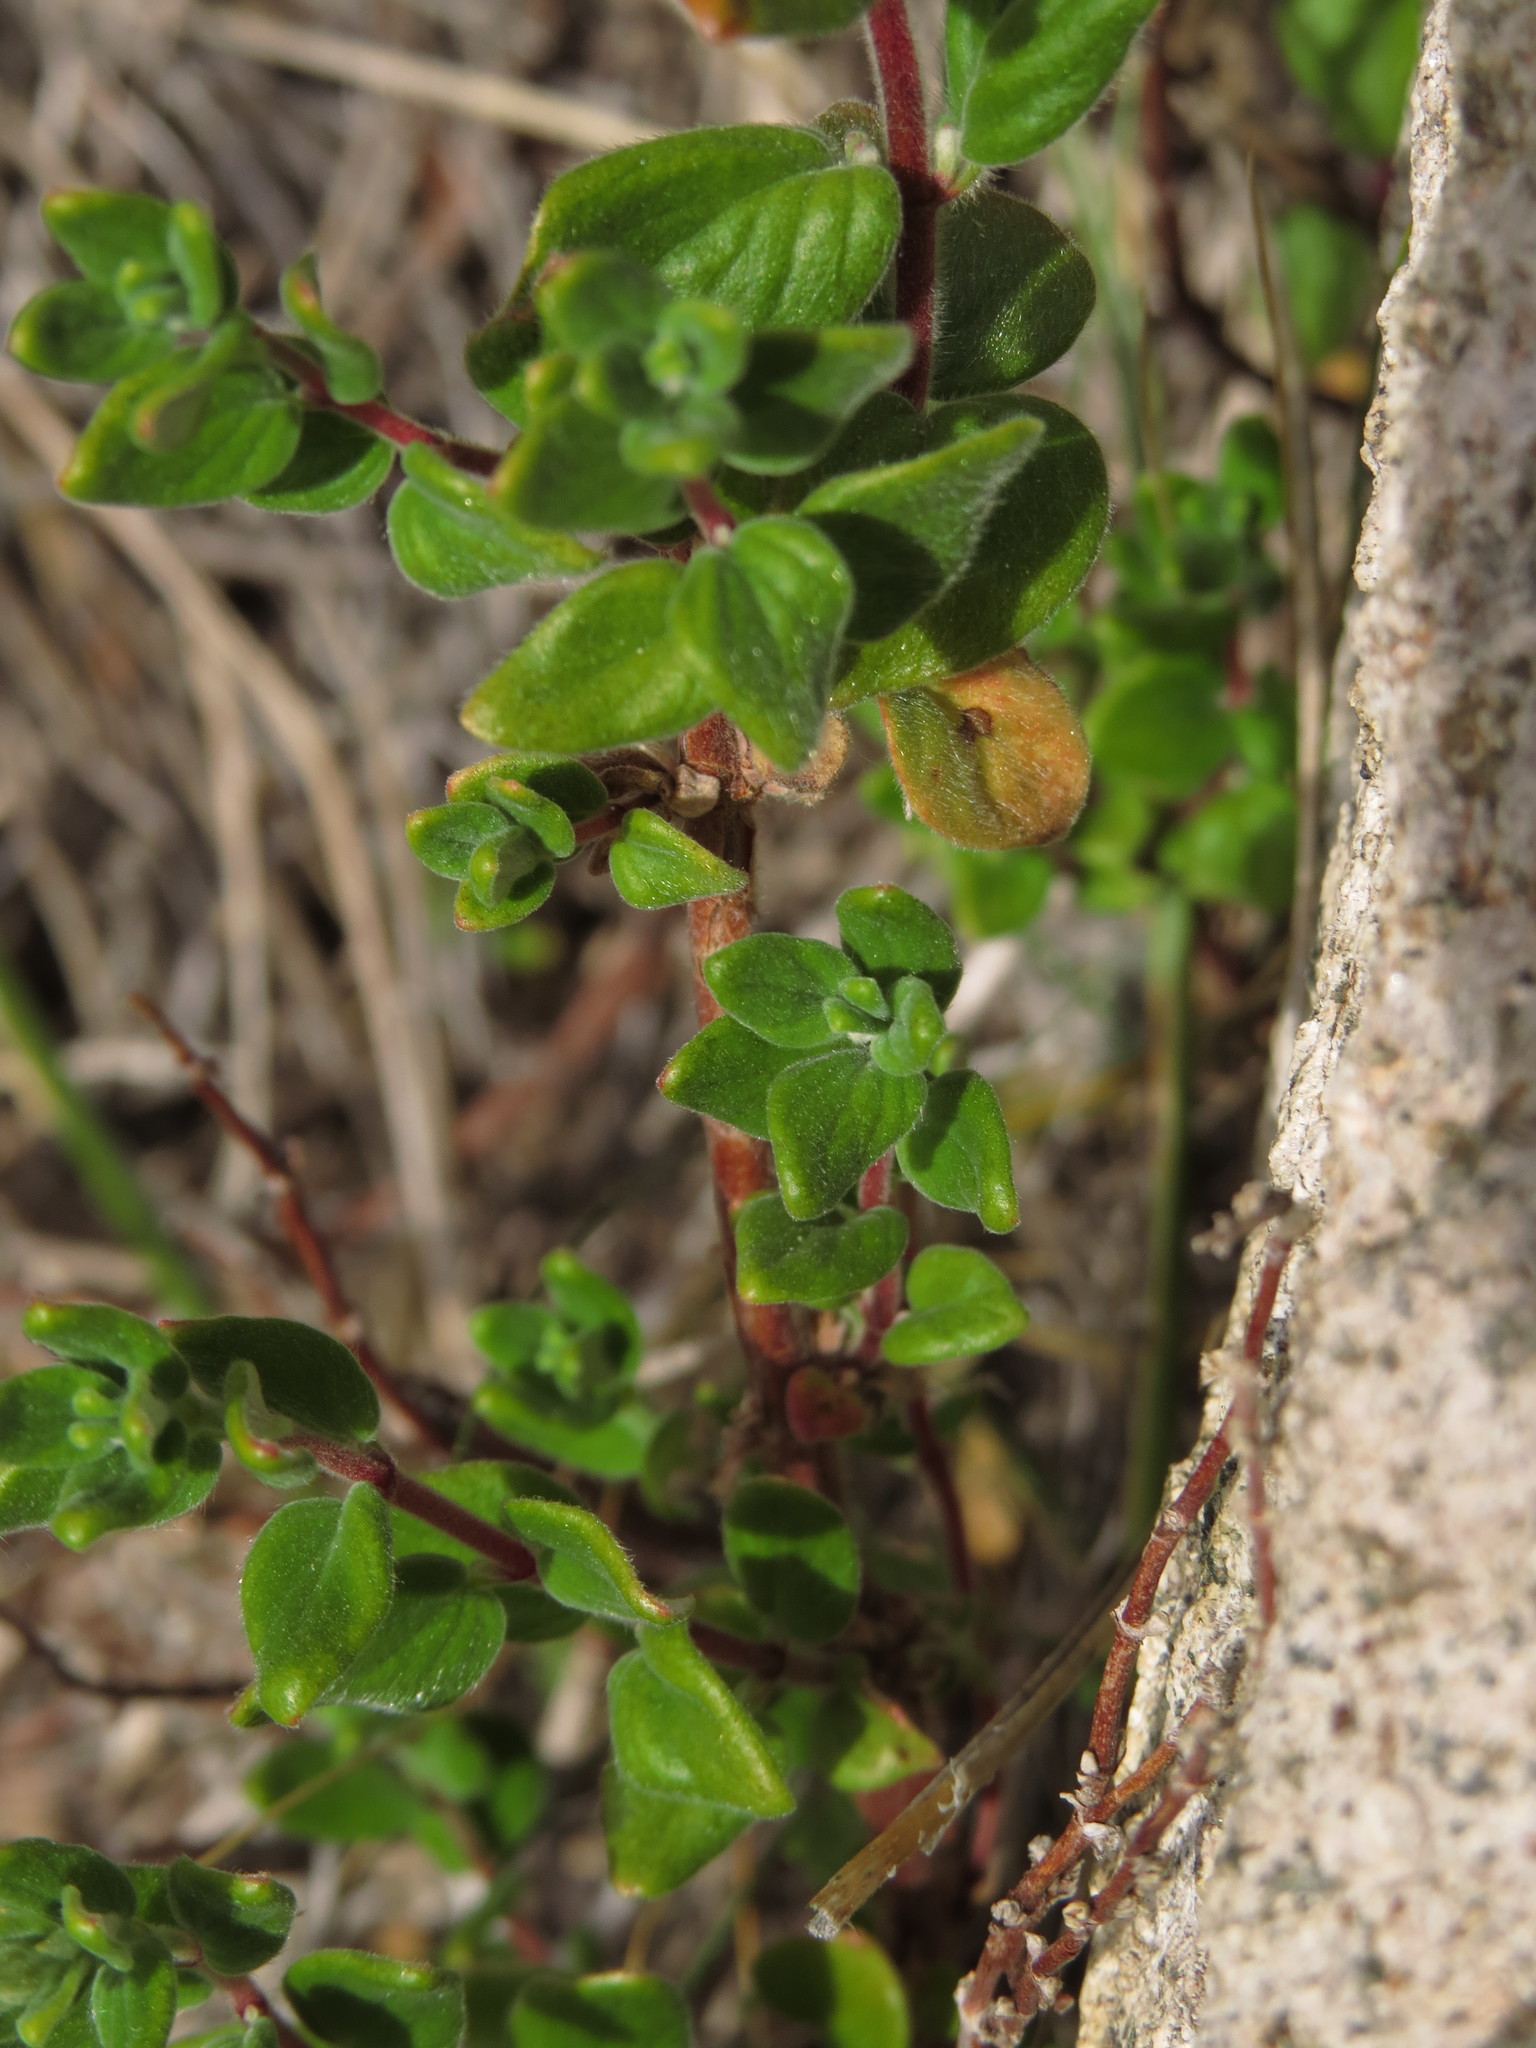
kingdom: Plantae
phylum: Tracheophyta
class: Magnoliopsida
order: Geraniales
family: Vivianiaceae
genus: Viviania
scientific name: Viviania ovata
